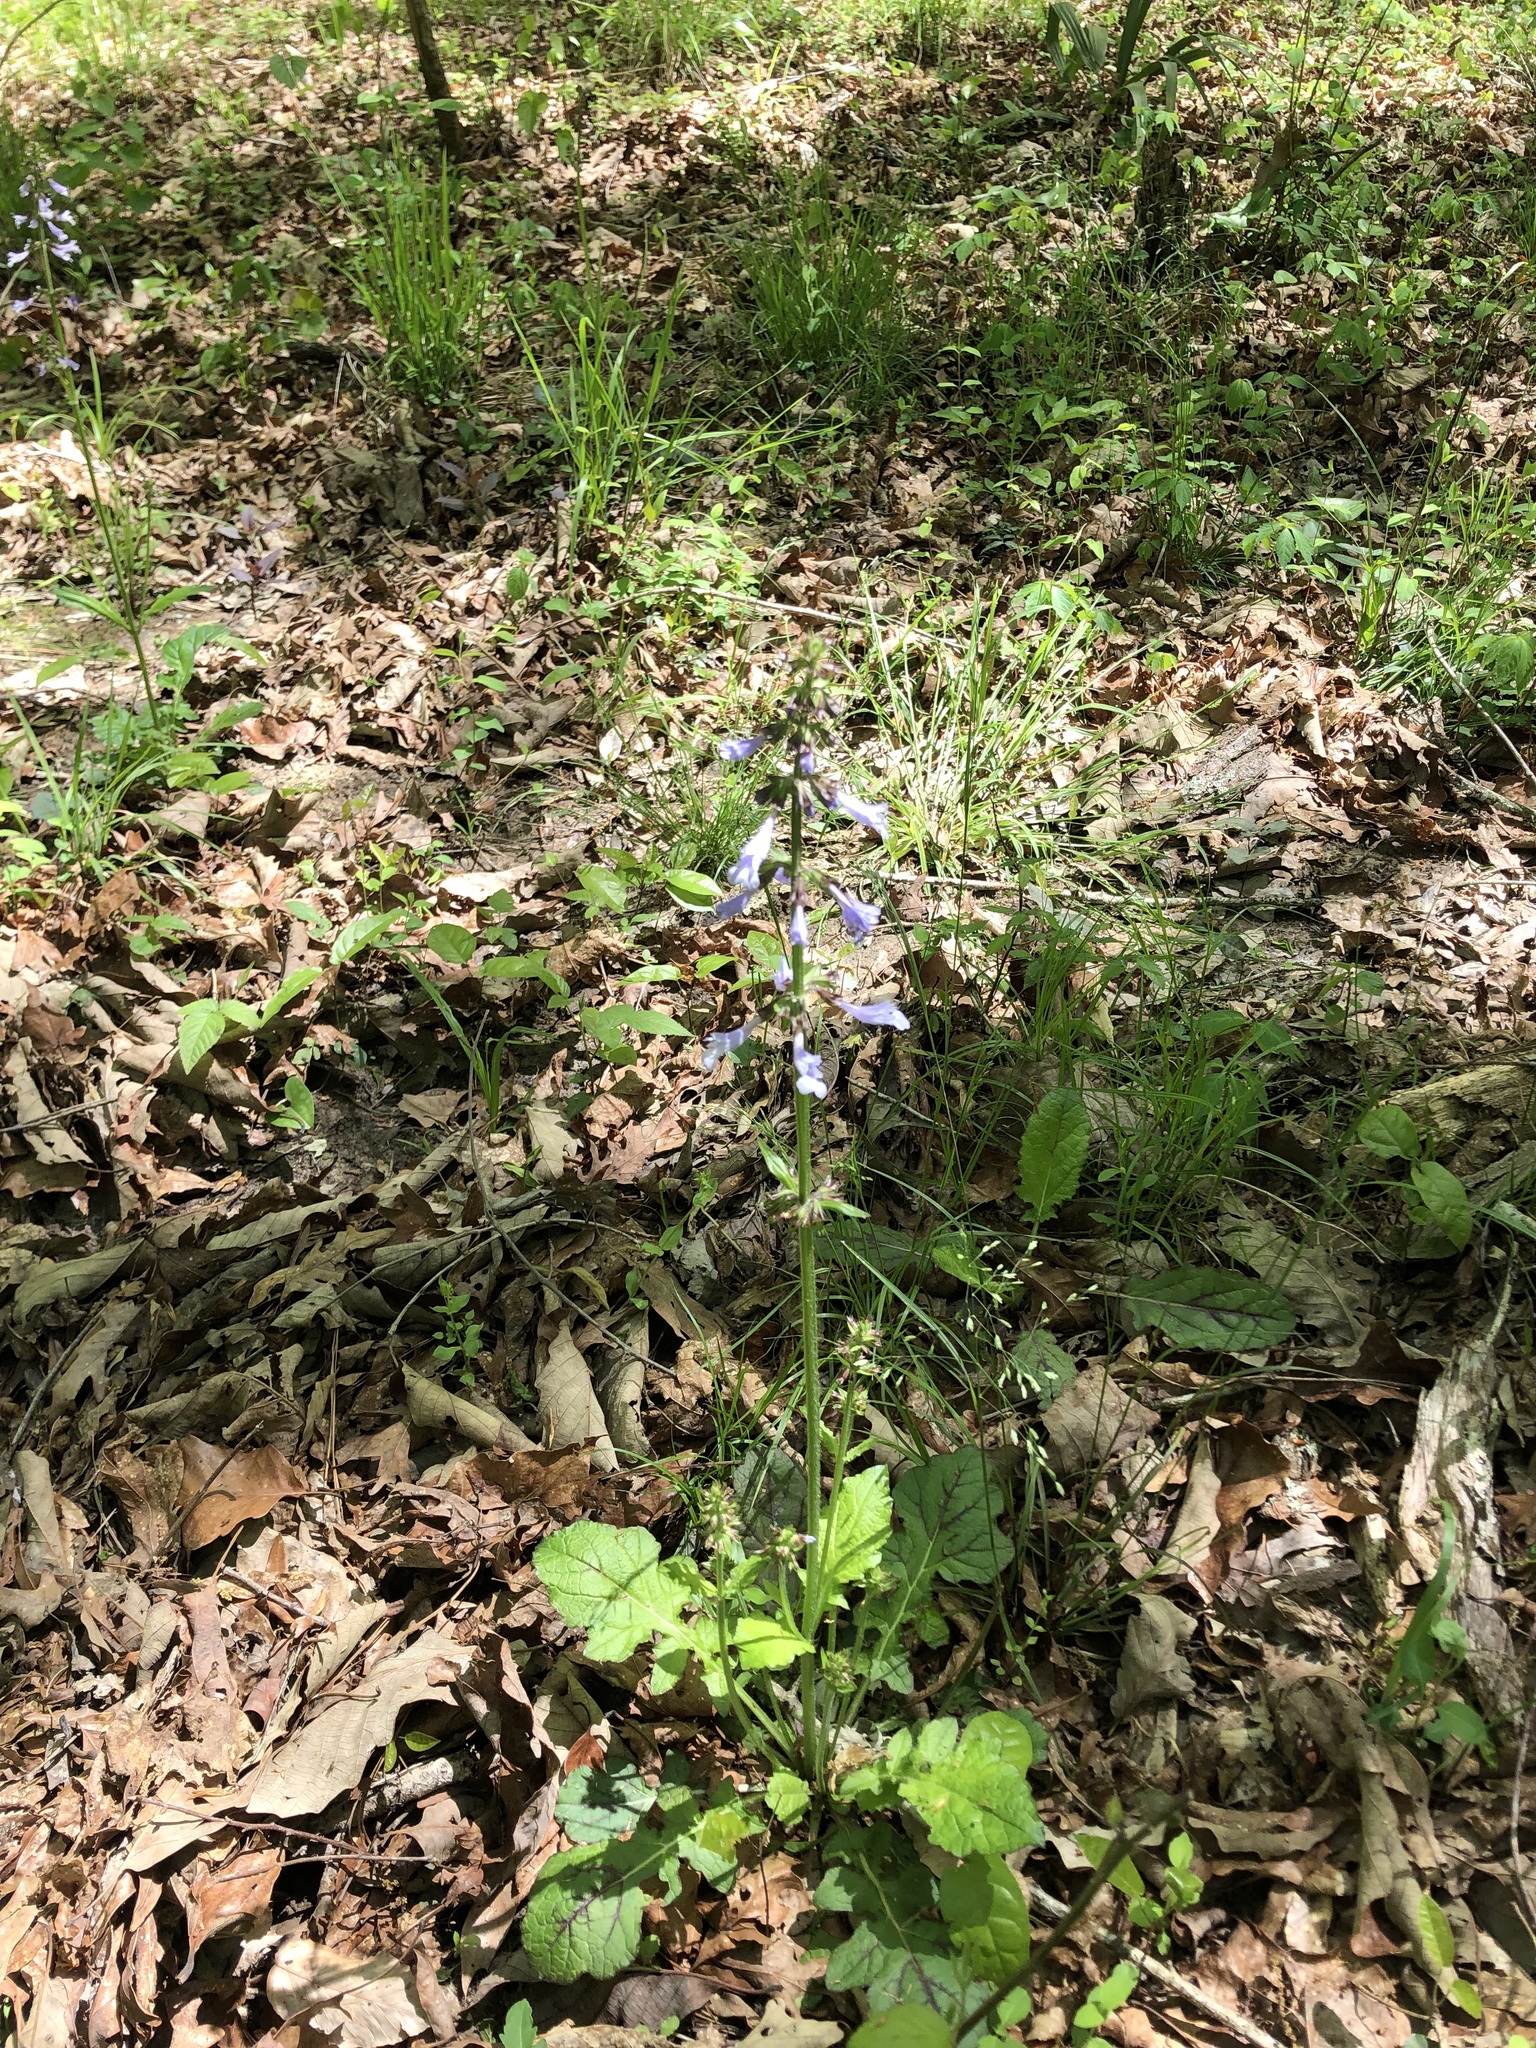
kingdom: Plantae
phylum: Tracheophyta
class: Magnoliopsida
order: Lamiales
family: Lamiaceae
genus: Salvia
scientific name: Salvia lyrata
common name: Cancerweed
